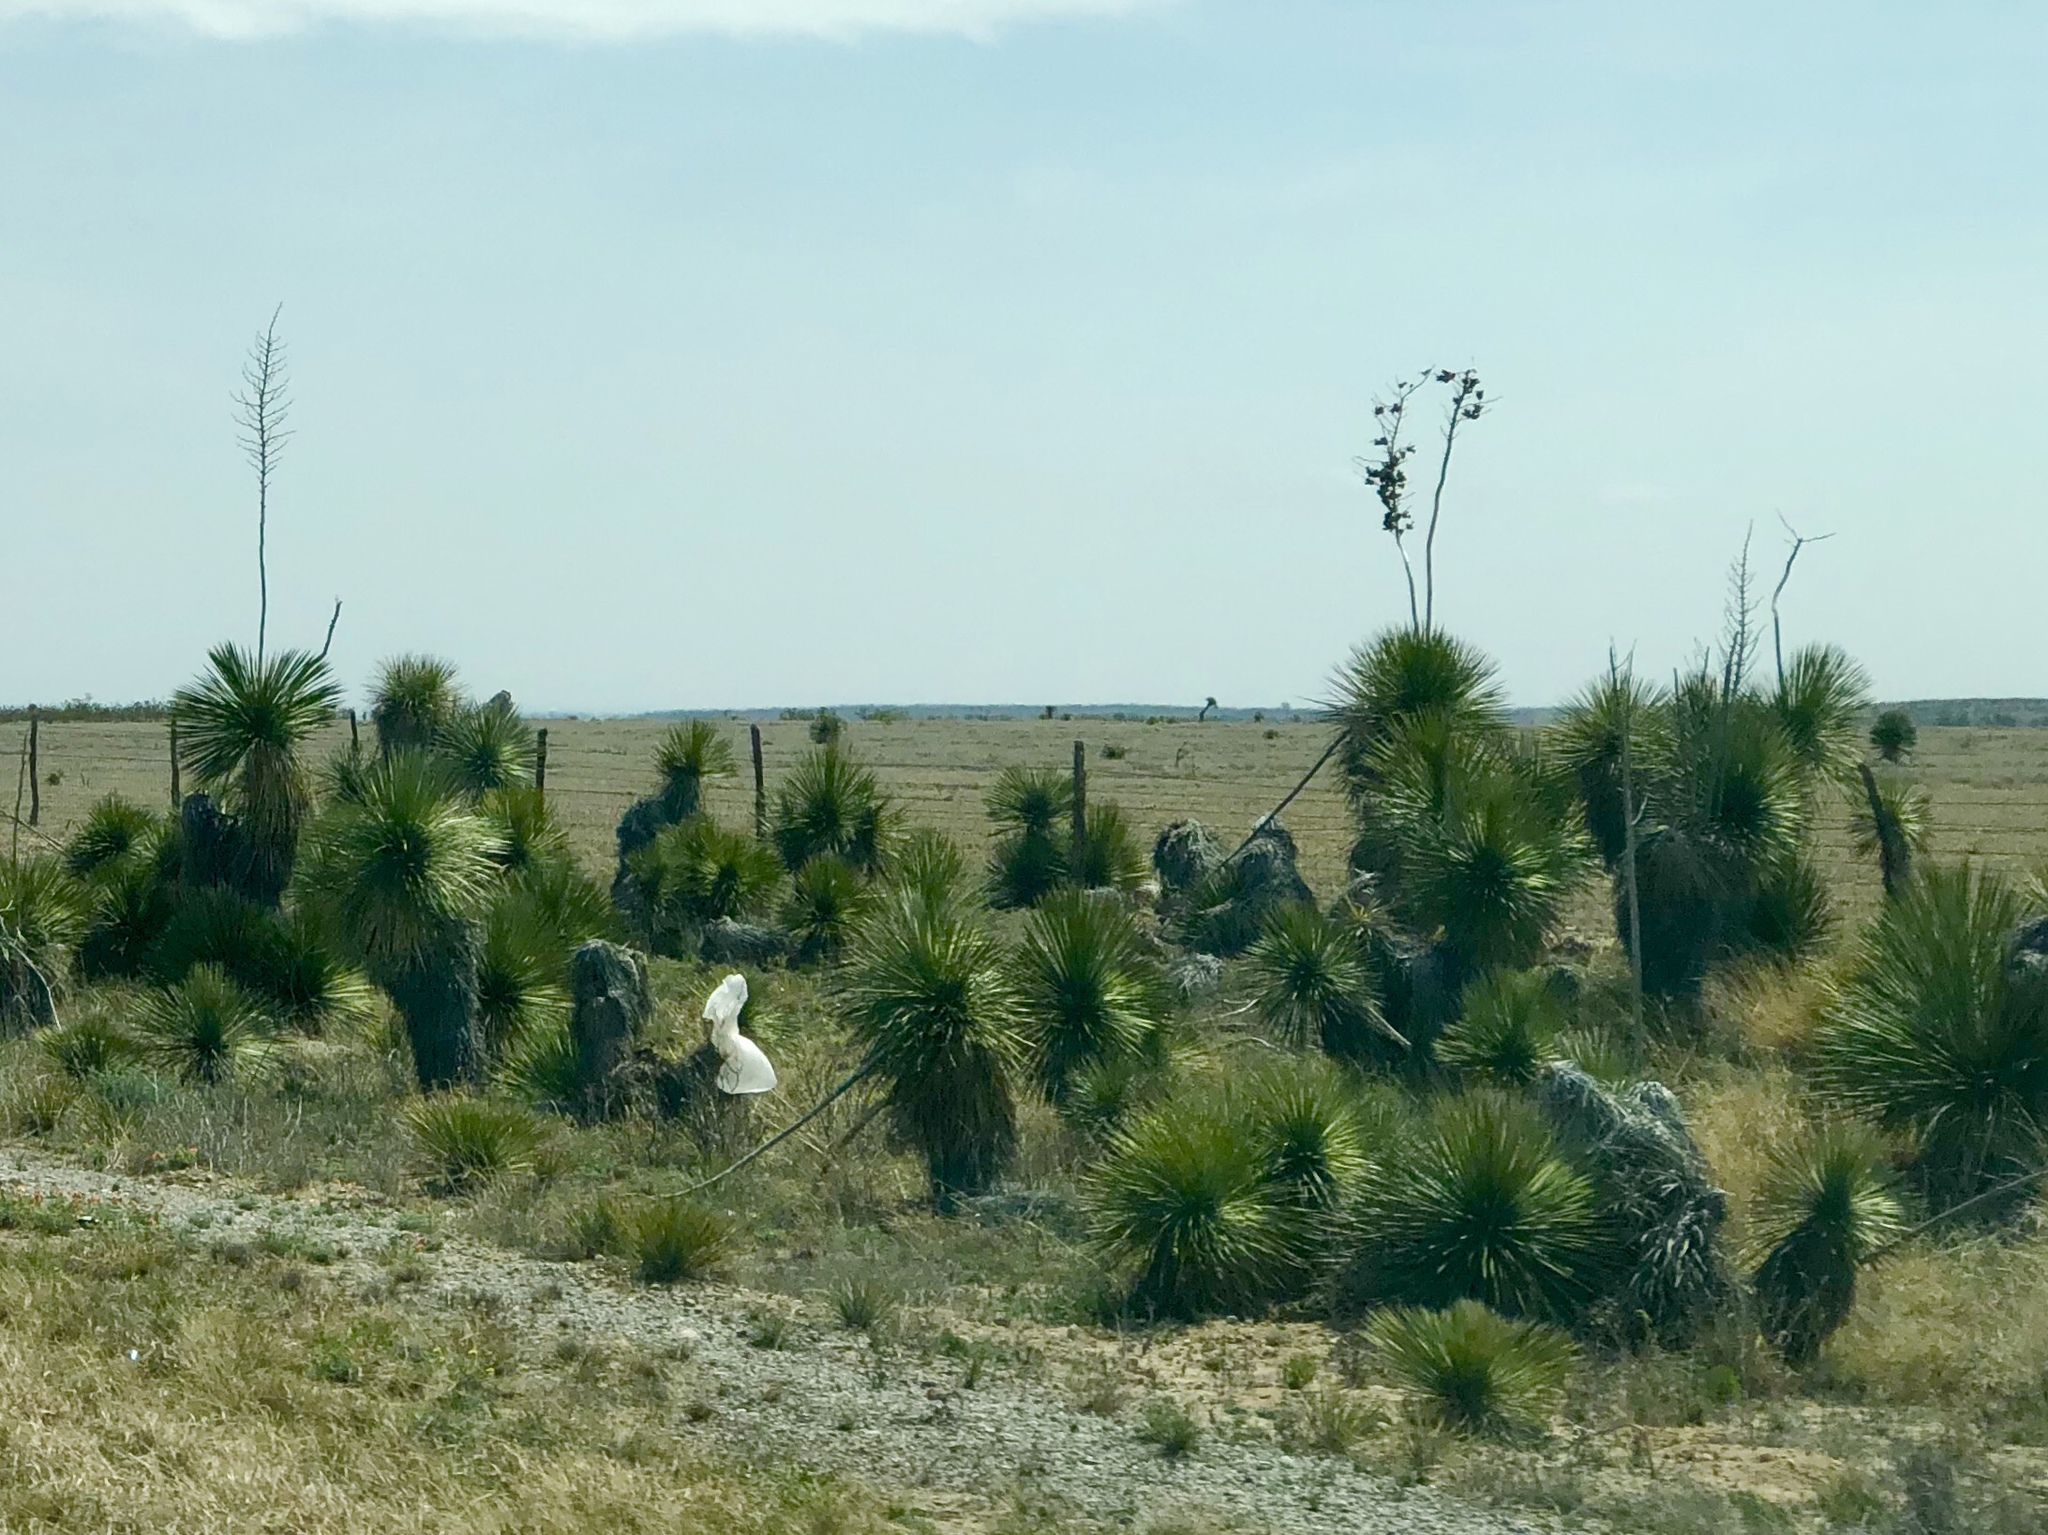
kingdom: Plantae
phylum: Tracheophyta
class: Liliopsida
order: Asparagales
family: Asparagaceae
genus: Yucca
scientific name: Yucca elata
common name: Palmella
